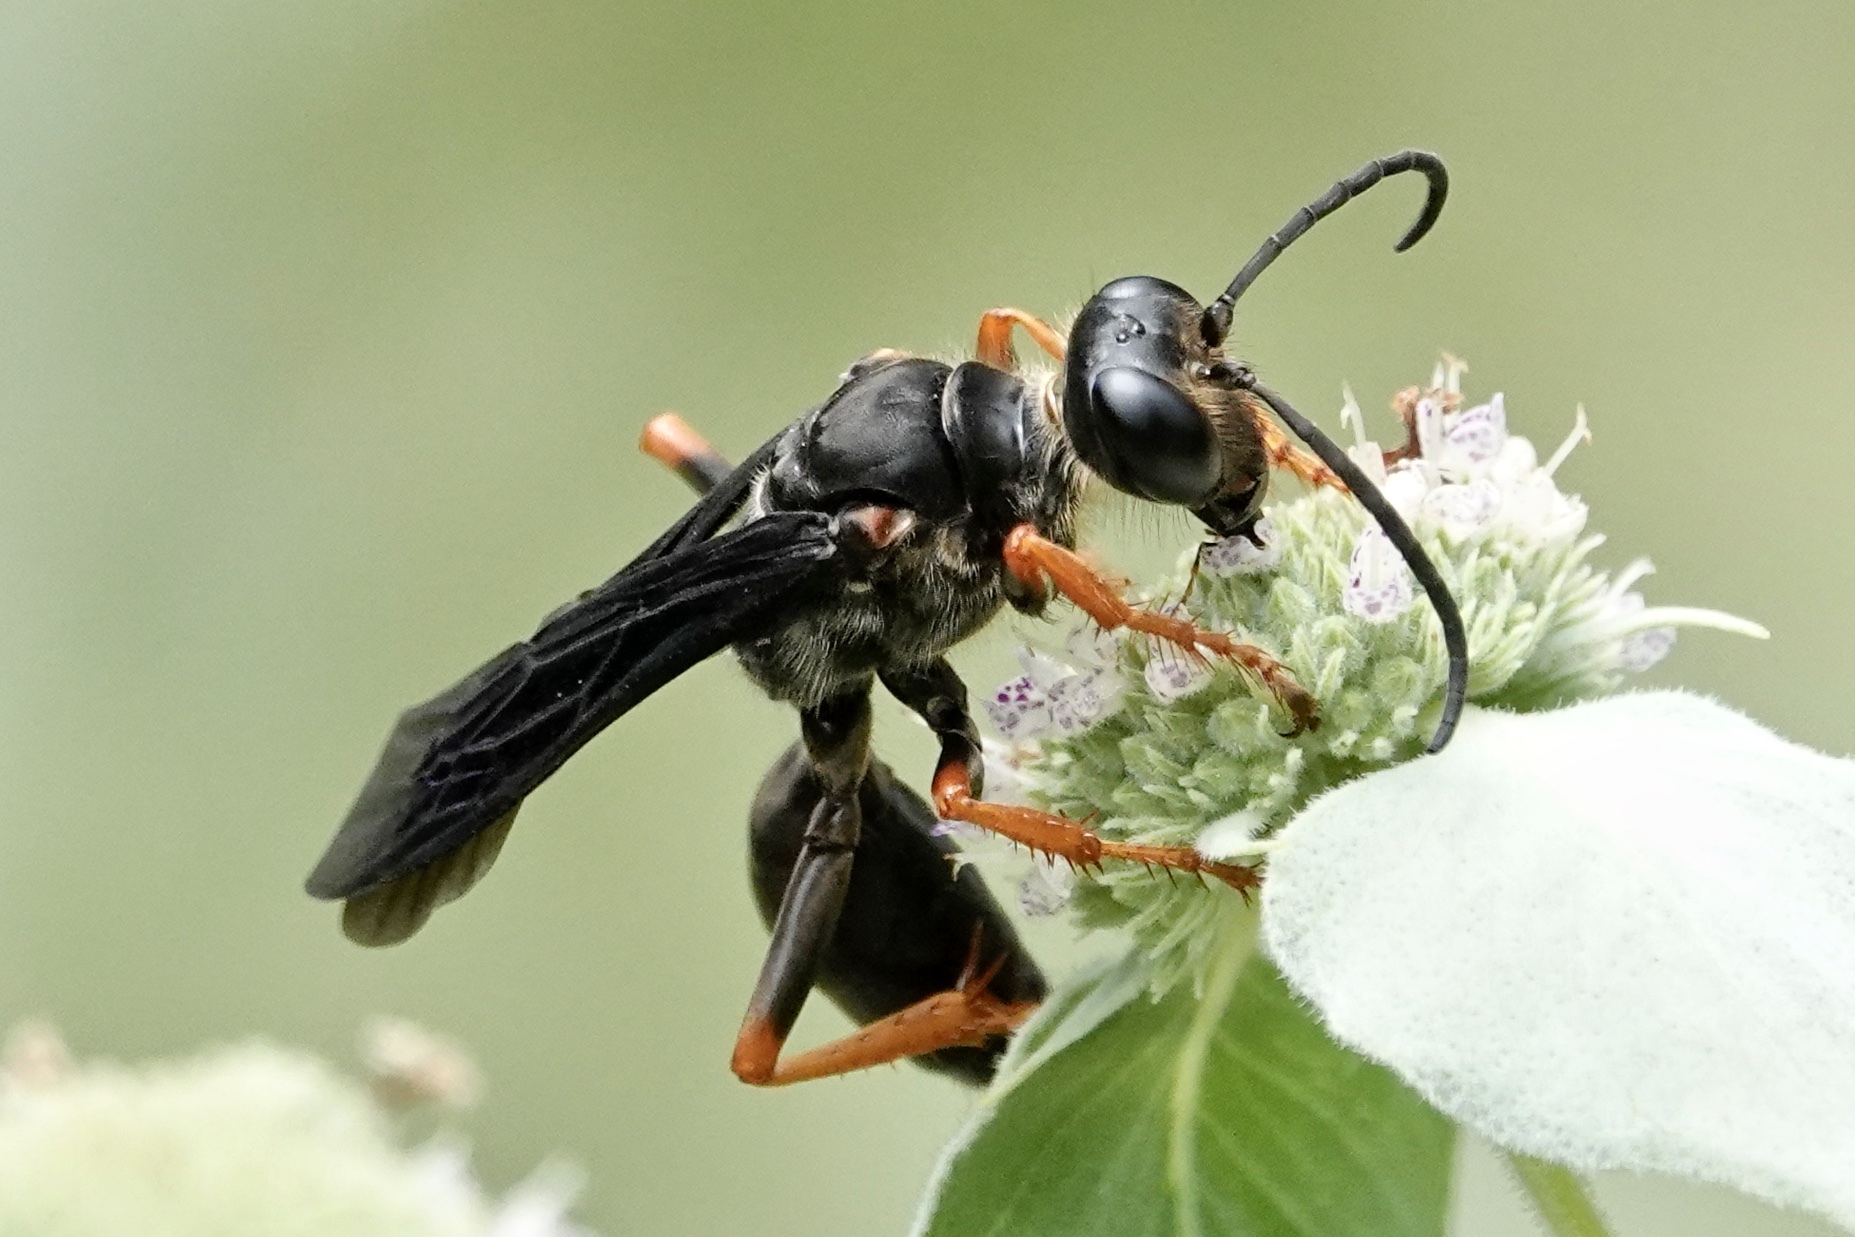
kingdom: Animalia
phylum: Arthropoda
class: Insecta
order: Hymenoptera
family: Sphecidae
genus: Sphex
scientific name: Sphex nudus
